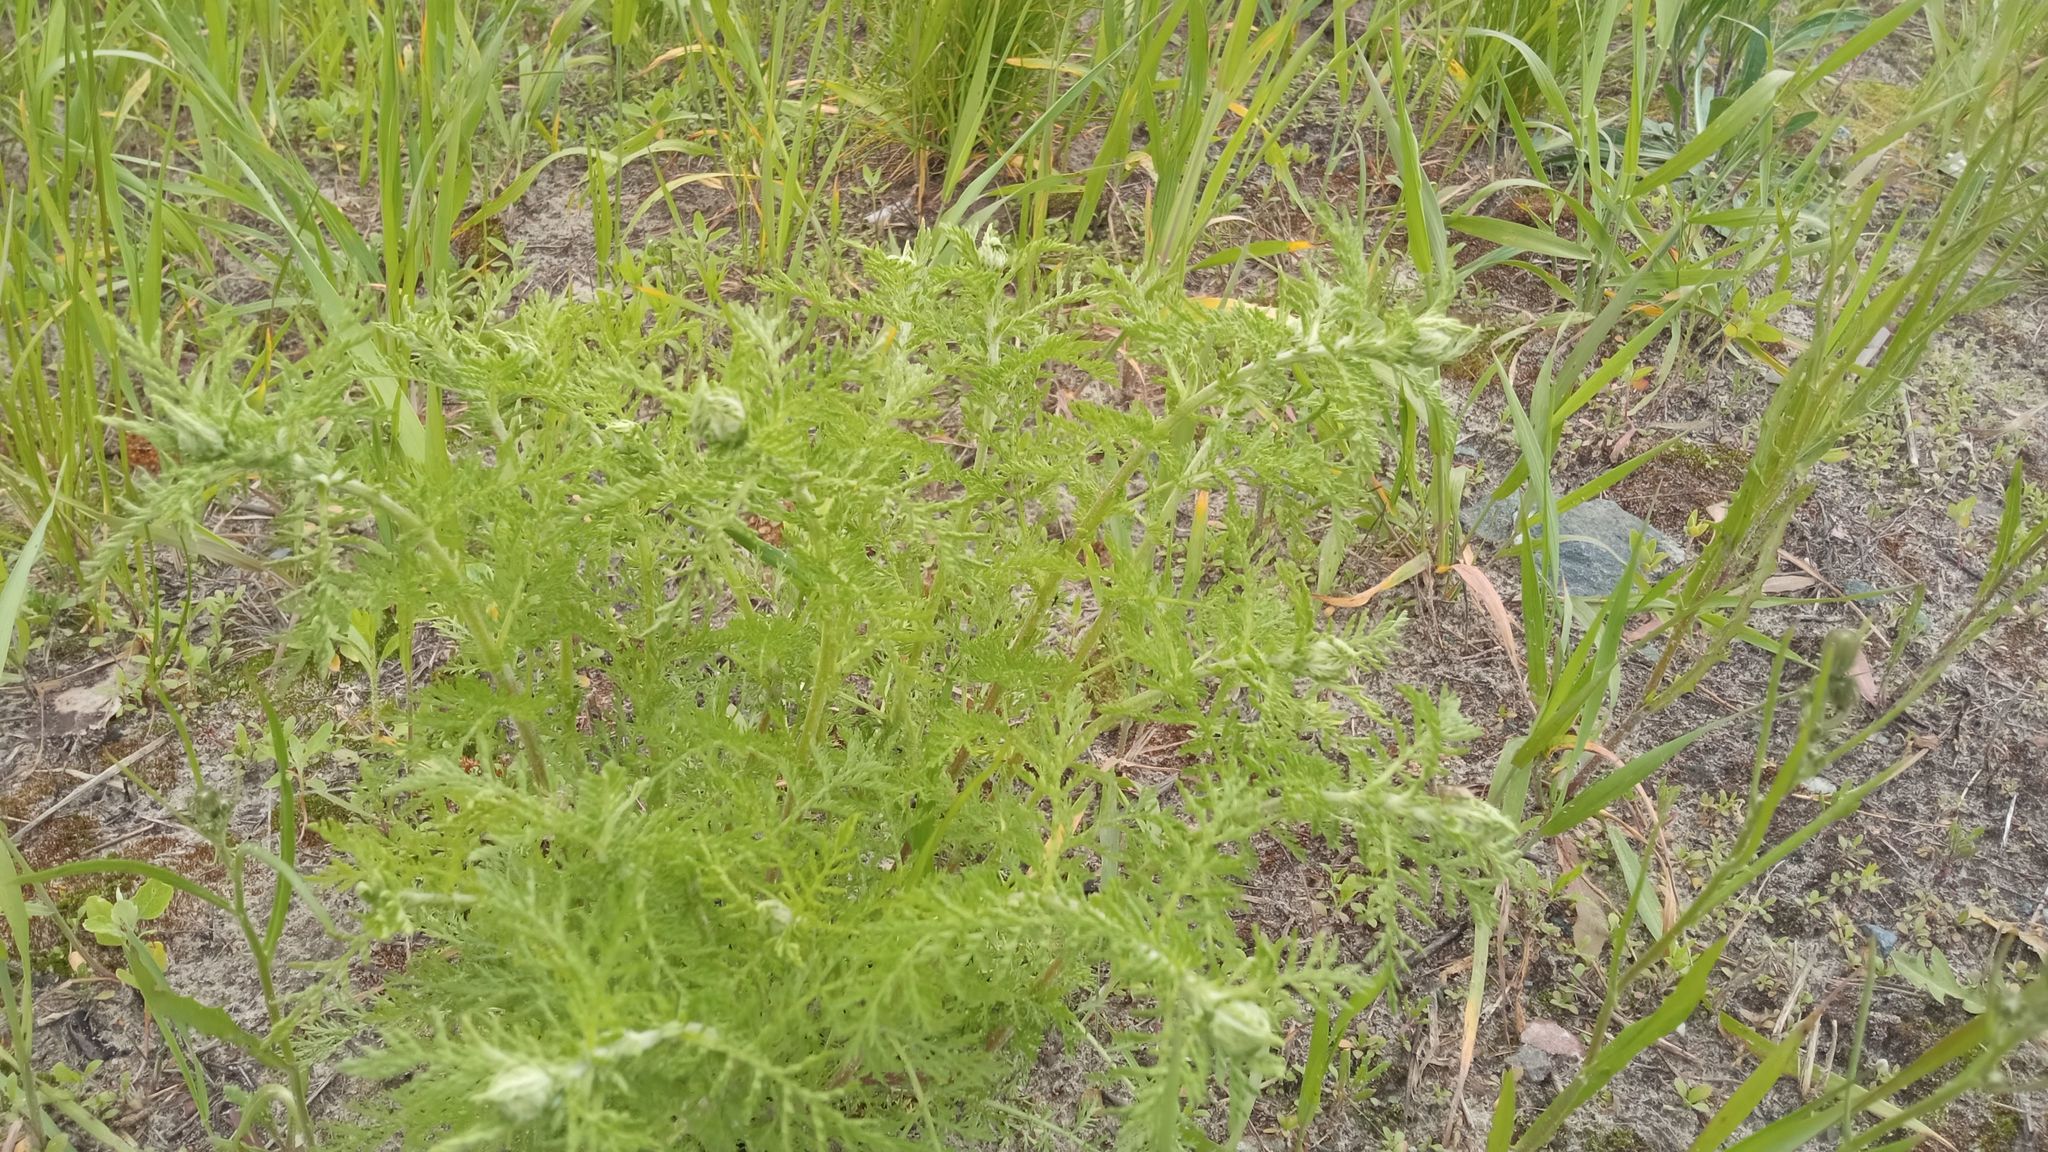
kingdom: Plantae
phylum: Tracheophyta
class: Magnoliopsida
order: Asterales
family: Asteraceae
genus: Cota
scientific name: Cota tinctoria
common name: Golden chamomile
